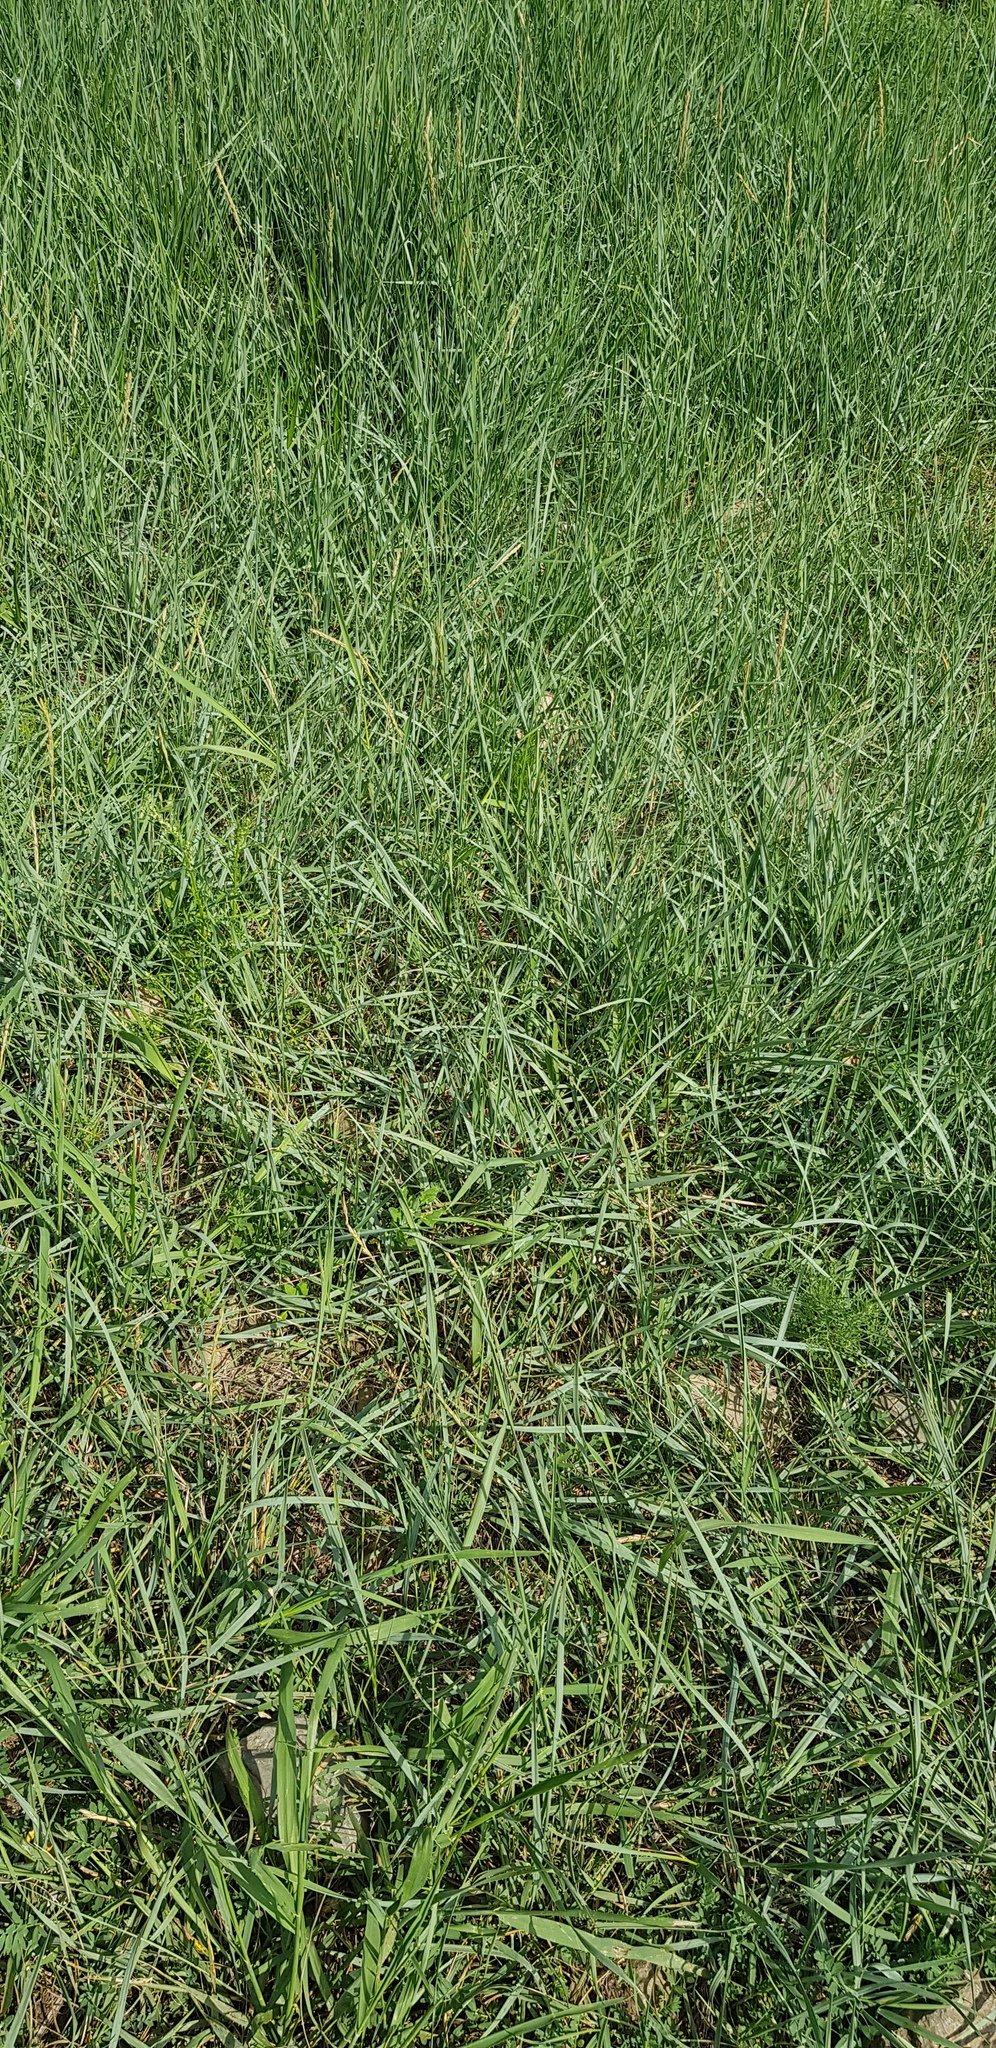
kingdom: Plantae
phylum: Tracheophyta
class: Liliopsida
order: Poales
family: Poaceae
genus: Leymus
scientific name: Leymus chinensis
